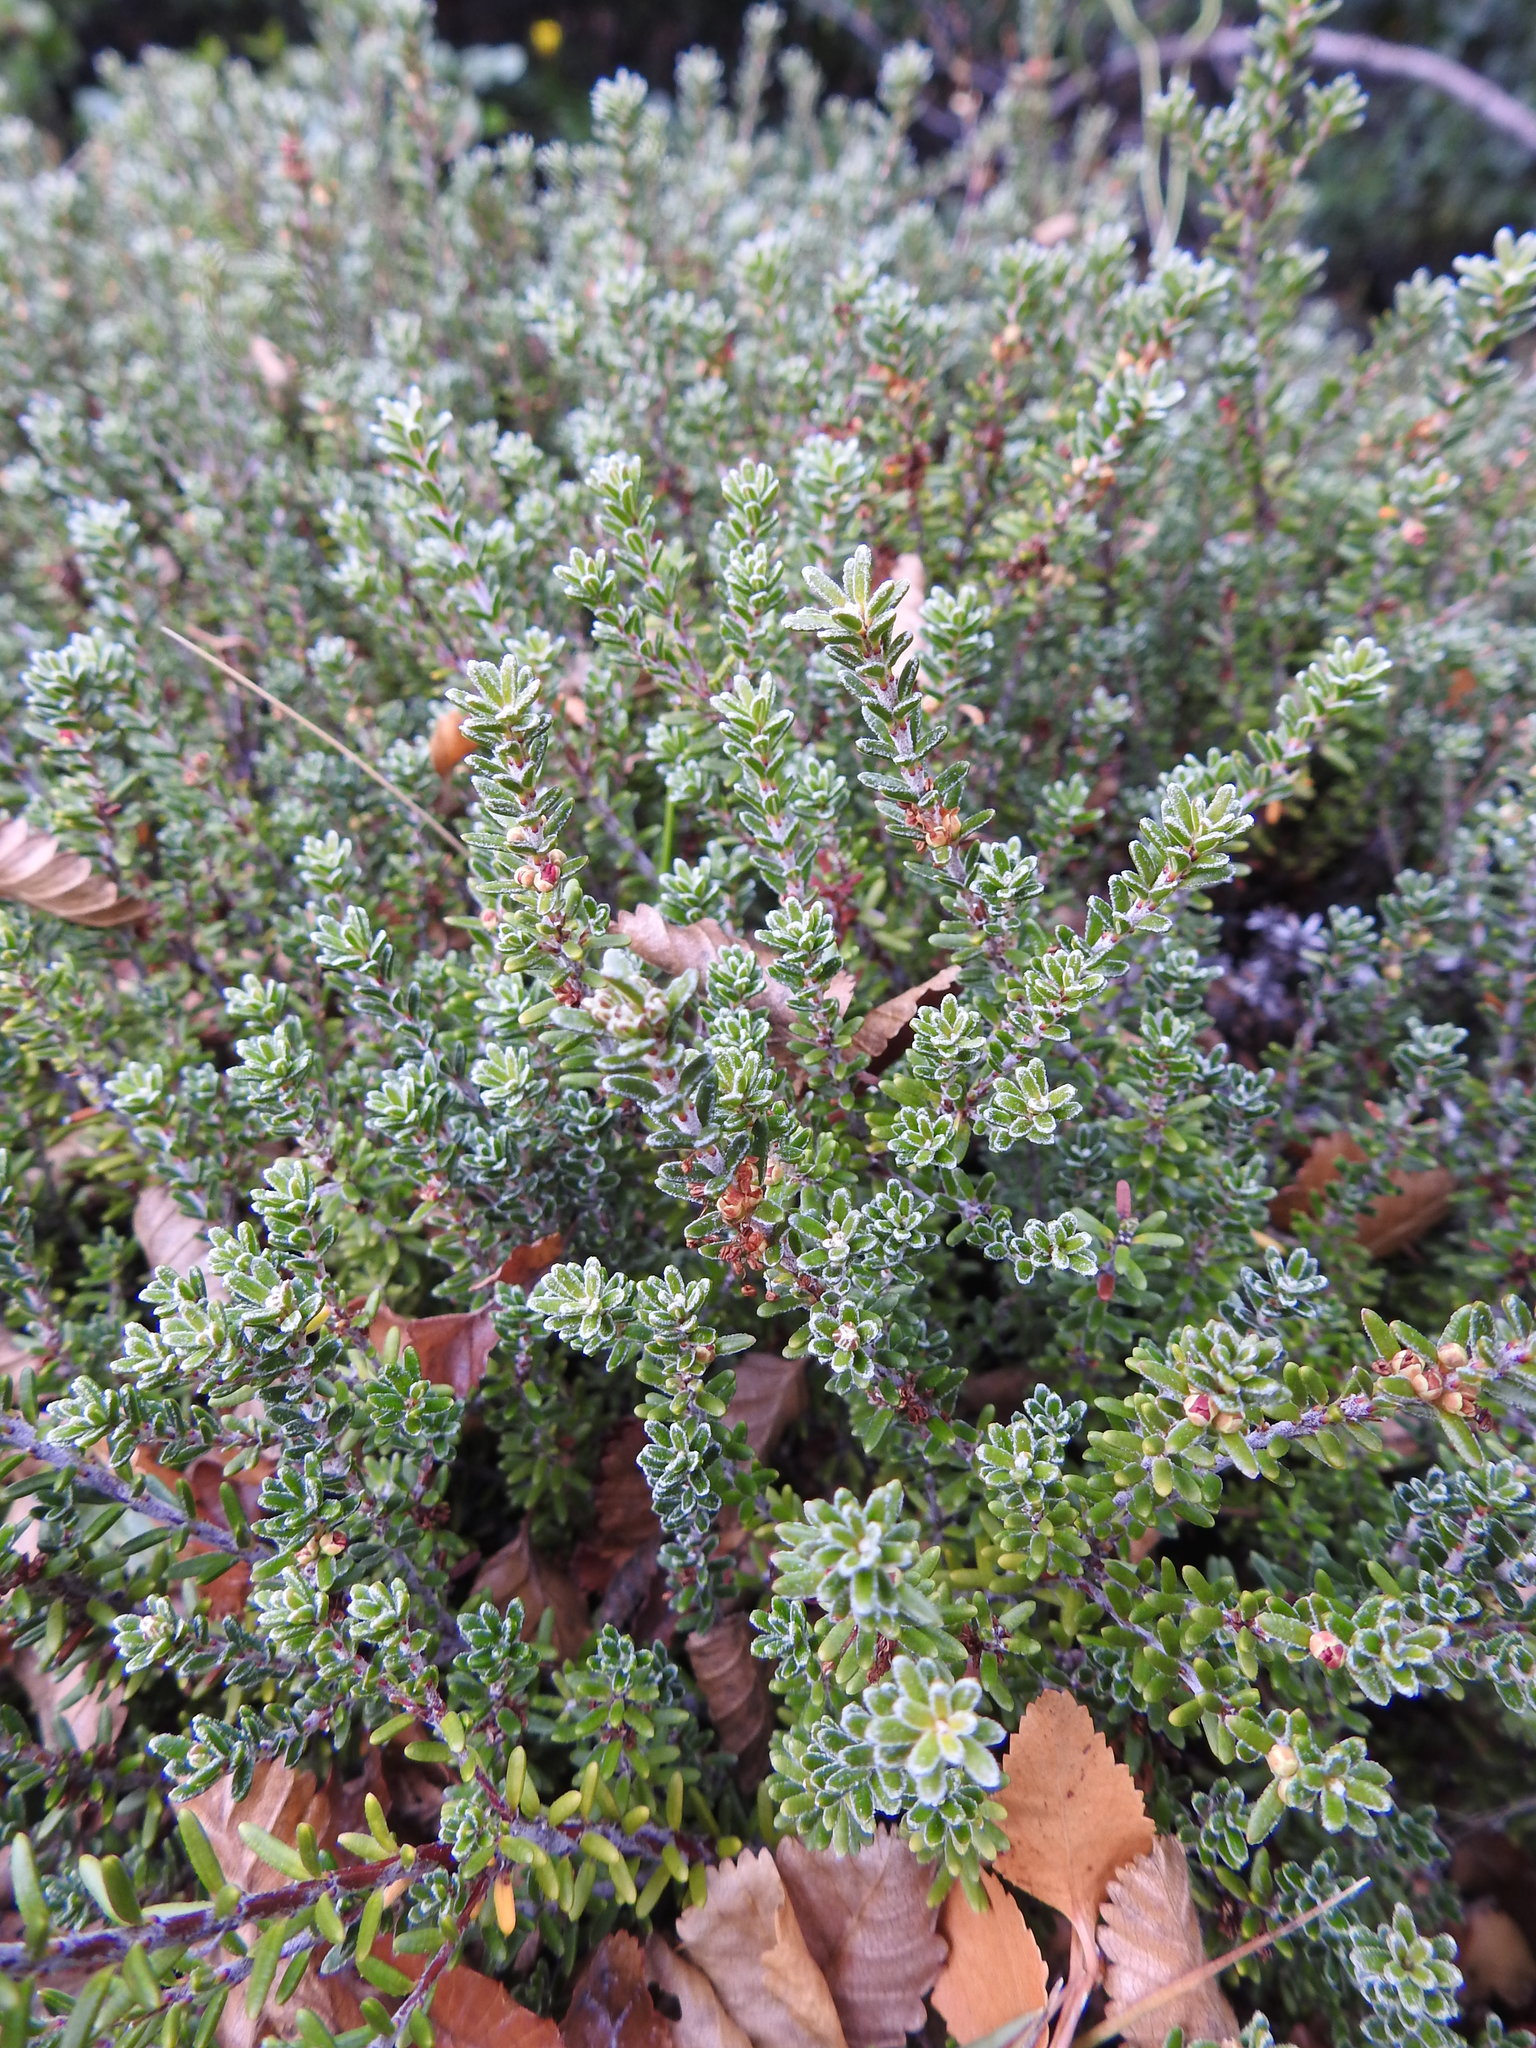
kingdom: Plantae
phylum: Tracheophyta
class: Magnoliopsida
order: Ericales
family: Ericaceae
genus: Empetrum
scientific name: Empetrum rubrum
